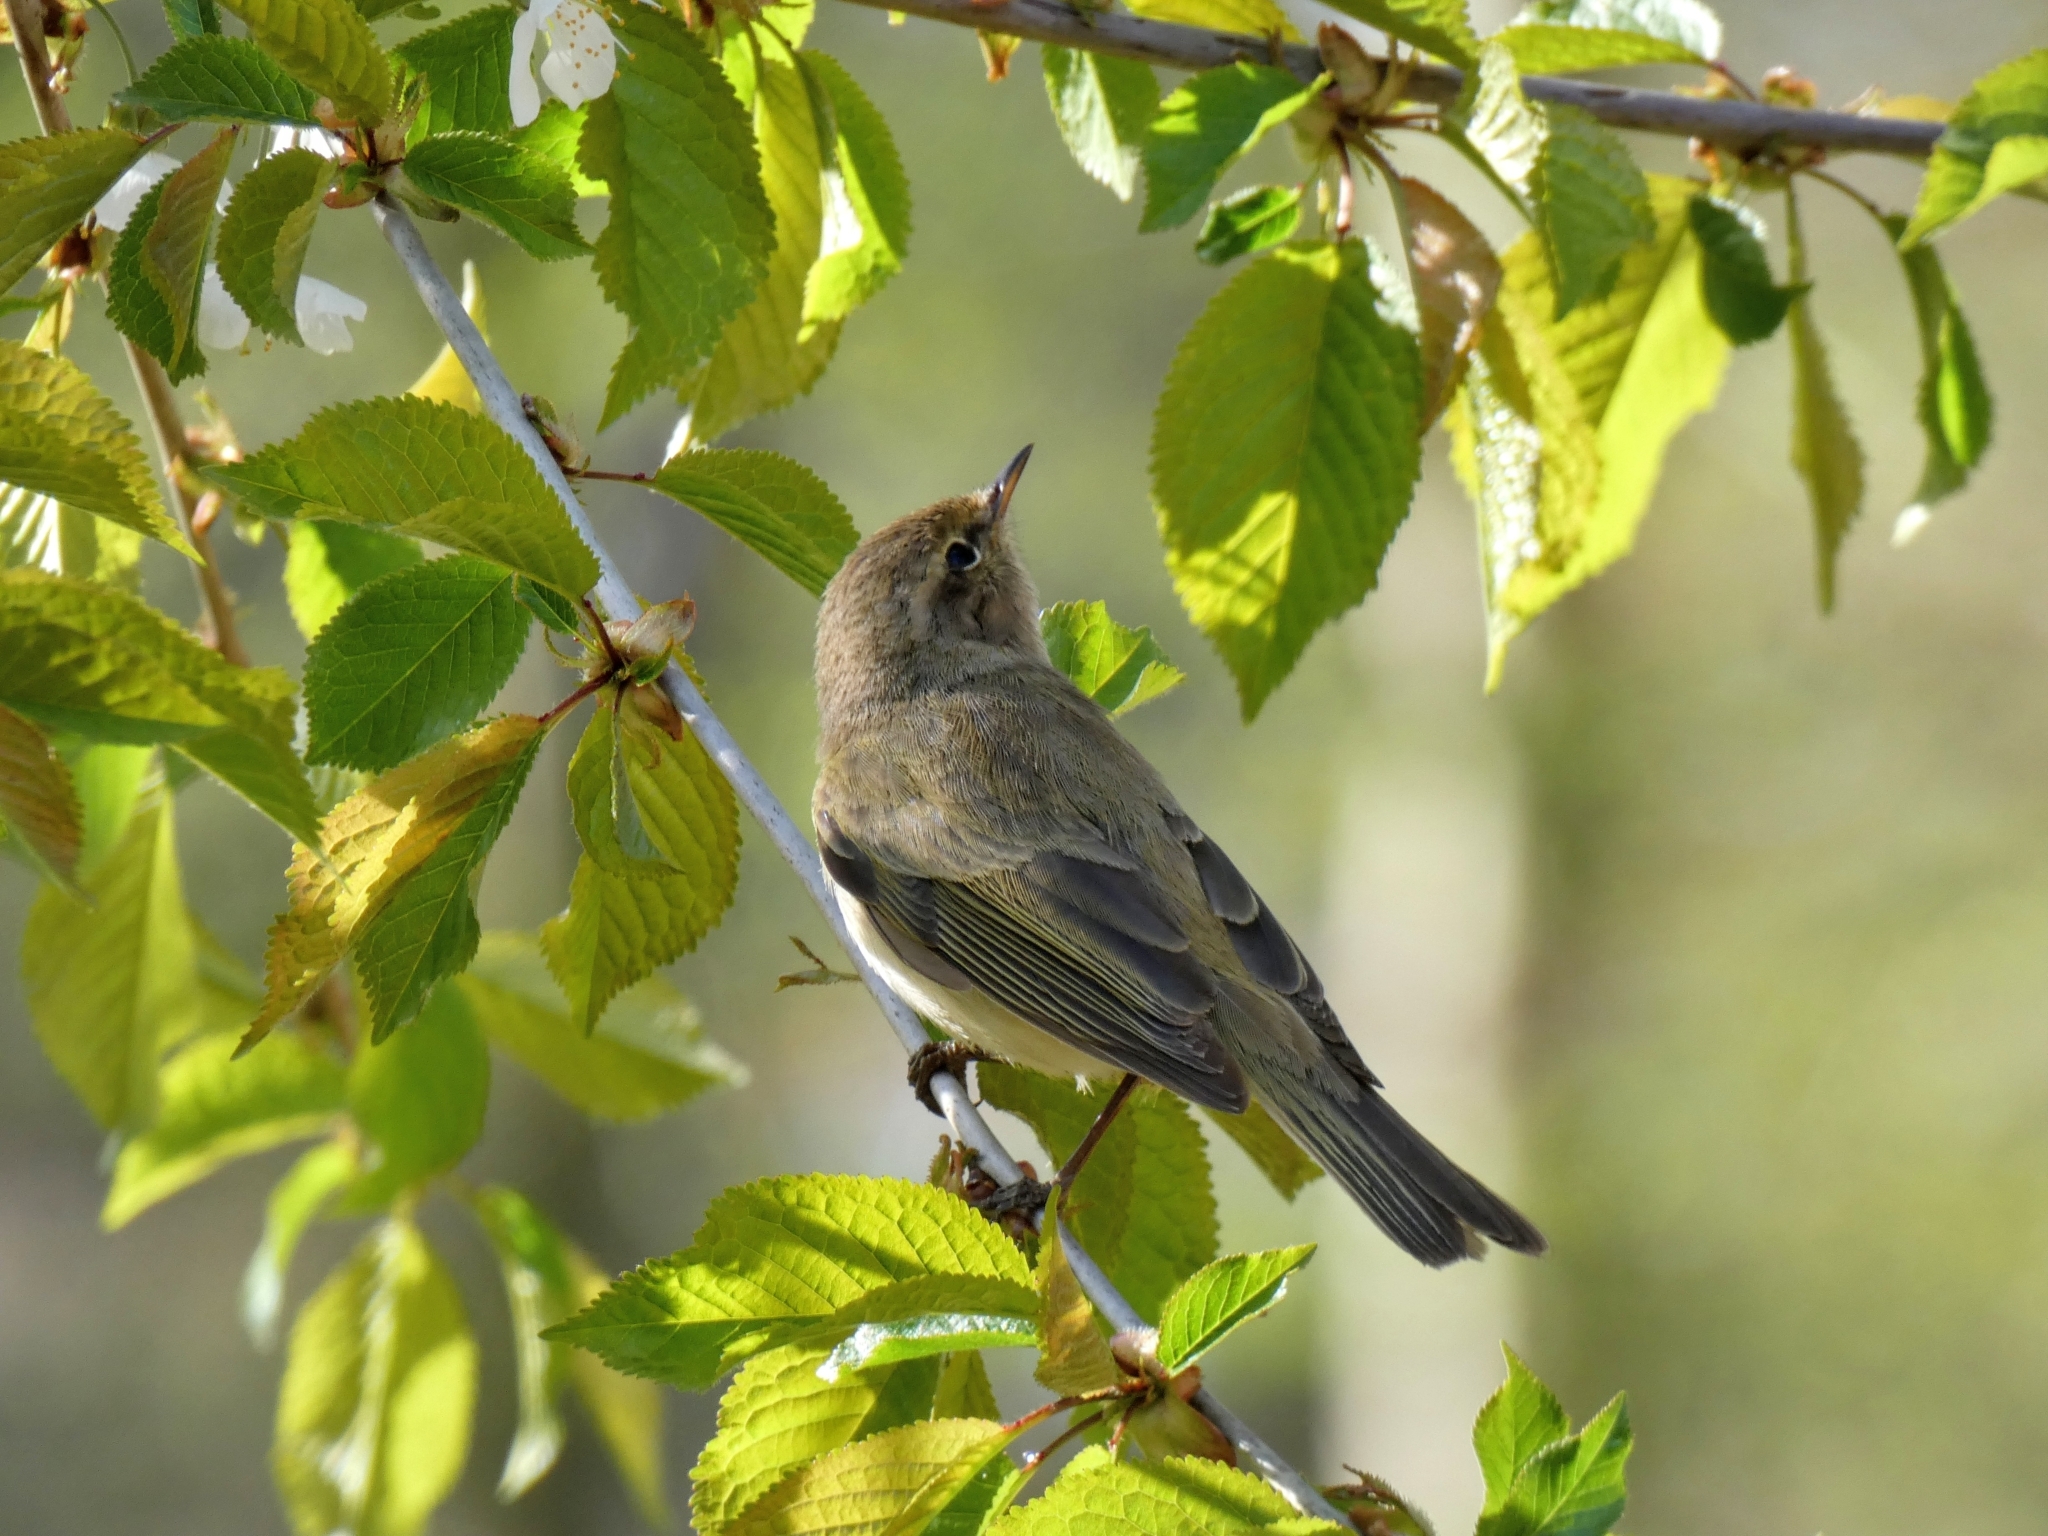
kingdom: Animalia
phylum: Chordata
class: Aves
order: Passeriformes
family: Phylloscopidae
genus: Phylloscopus
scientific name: Phylloscopus collybita
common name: Common chiffchaff
